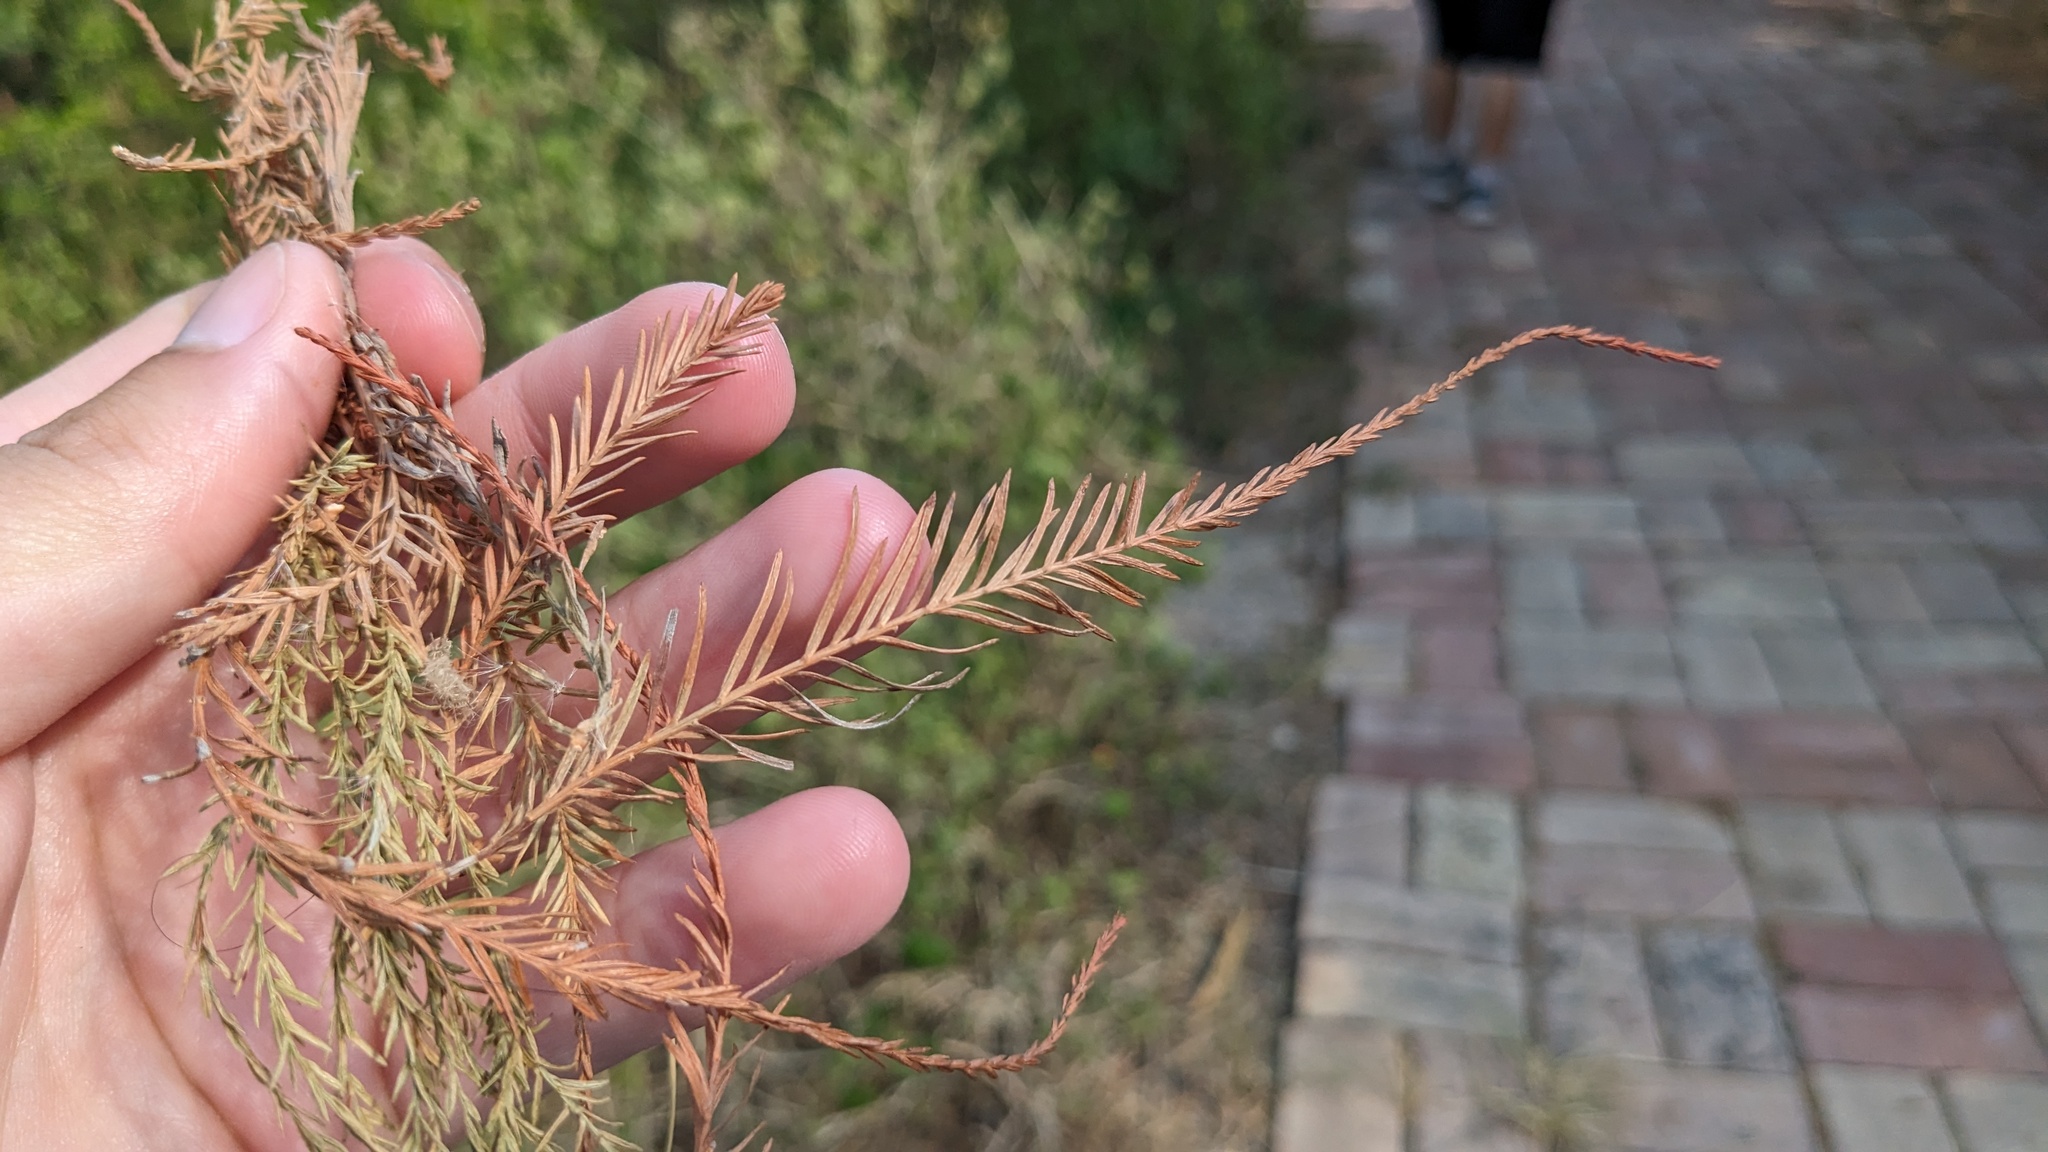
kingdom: Plantae
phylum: Tracheophyta
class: Pinopsida
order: Pinales
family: Cupressaceae
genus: Taxodium
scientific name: Taxodium mucronatum
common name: Montezume bald cypress
